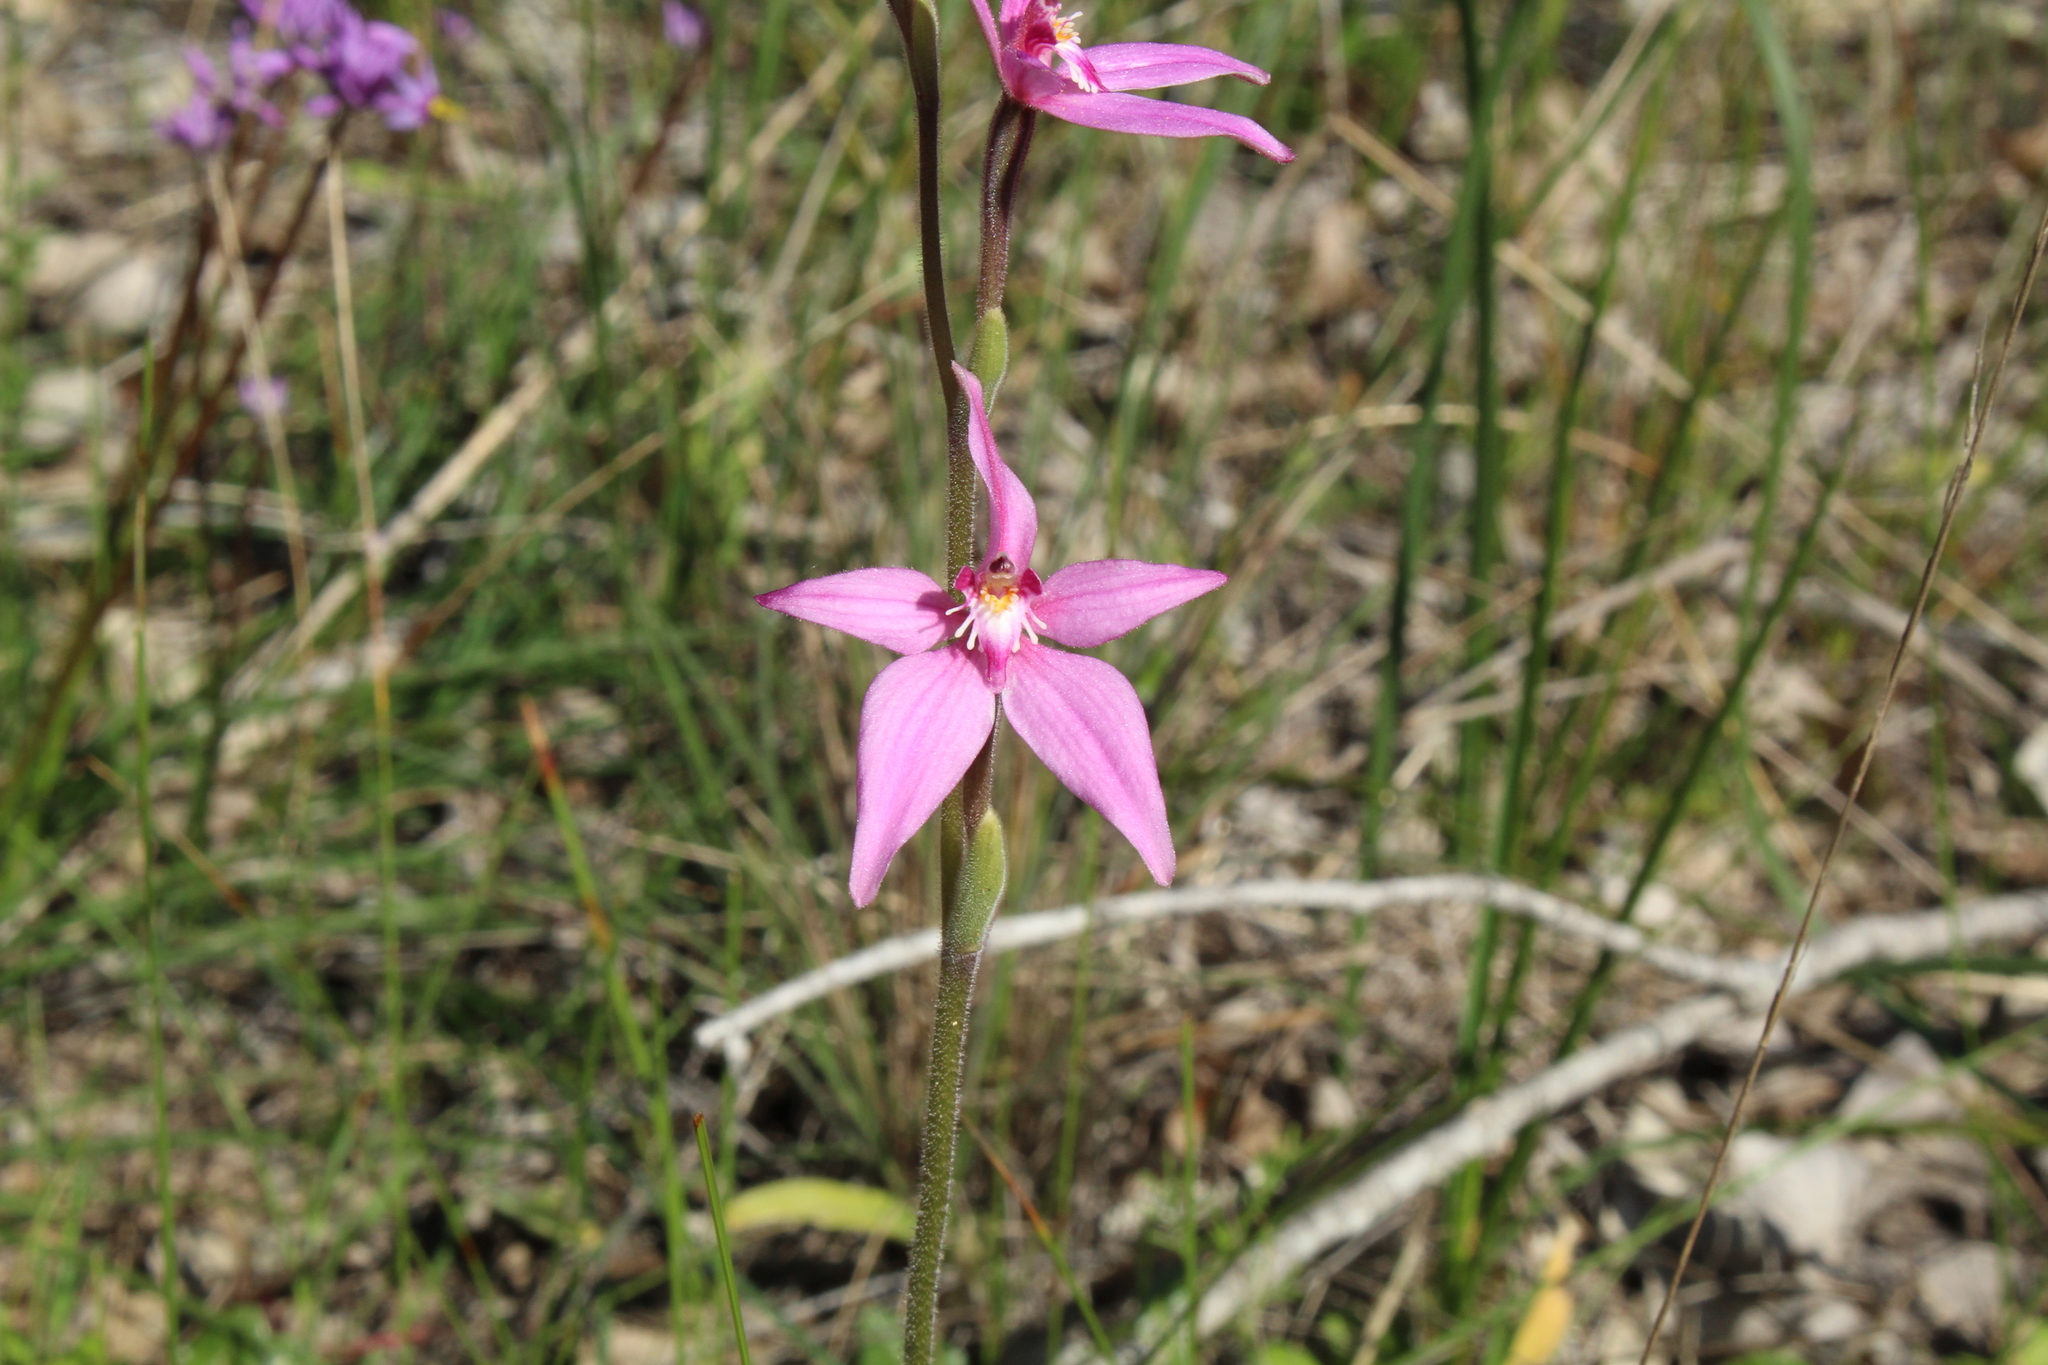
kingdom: Plantae
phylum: Tracheophyta
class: Liliopsida
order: Asparagales
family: Orchidaceae
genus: Caladenia
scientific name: Caladenia latifolia
